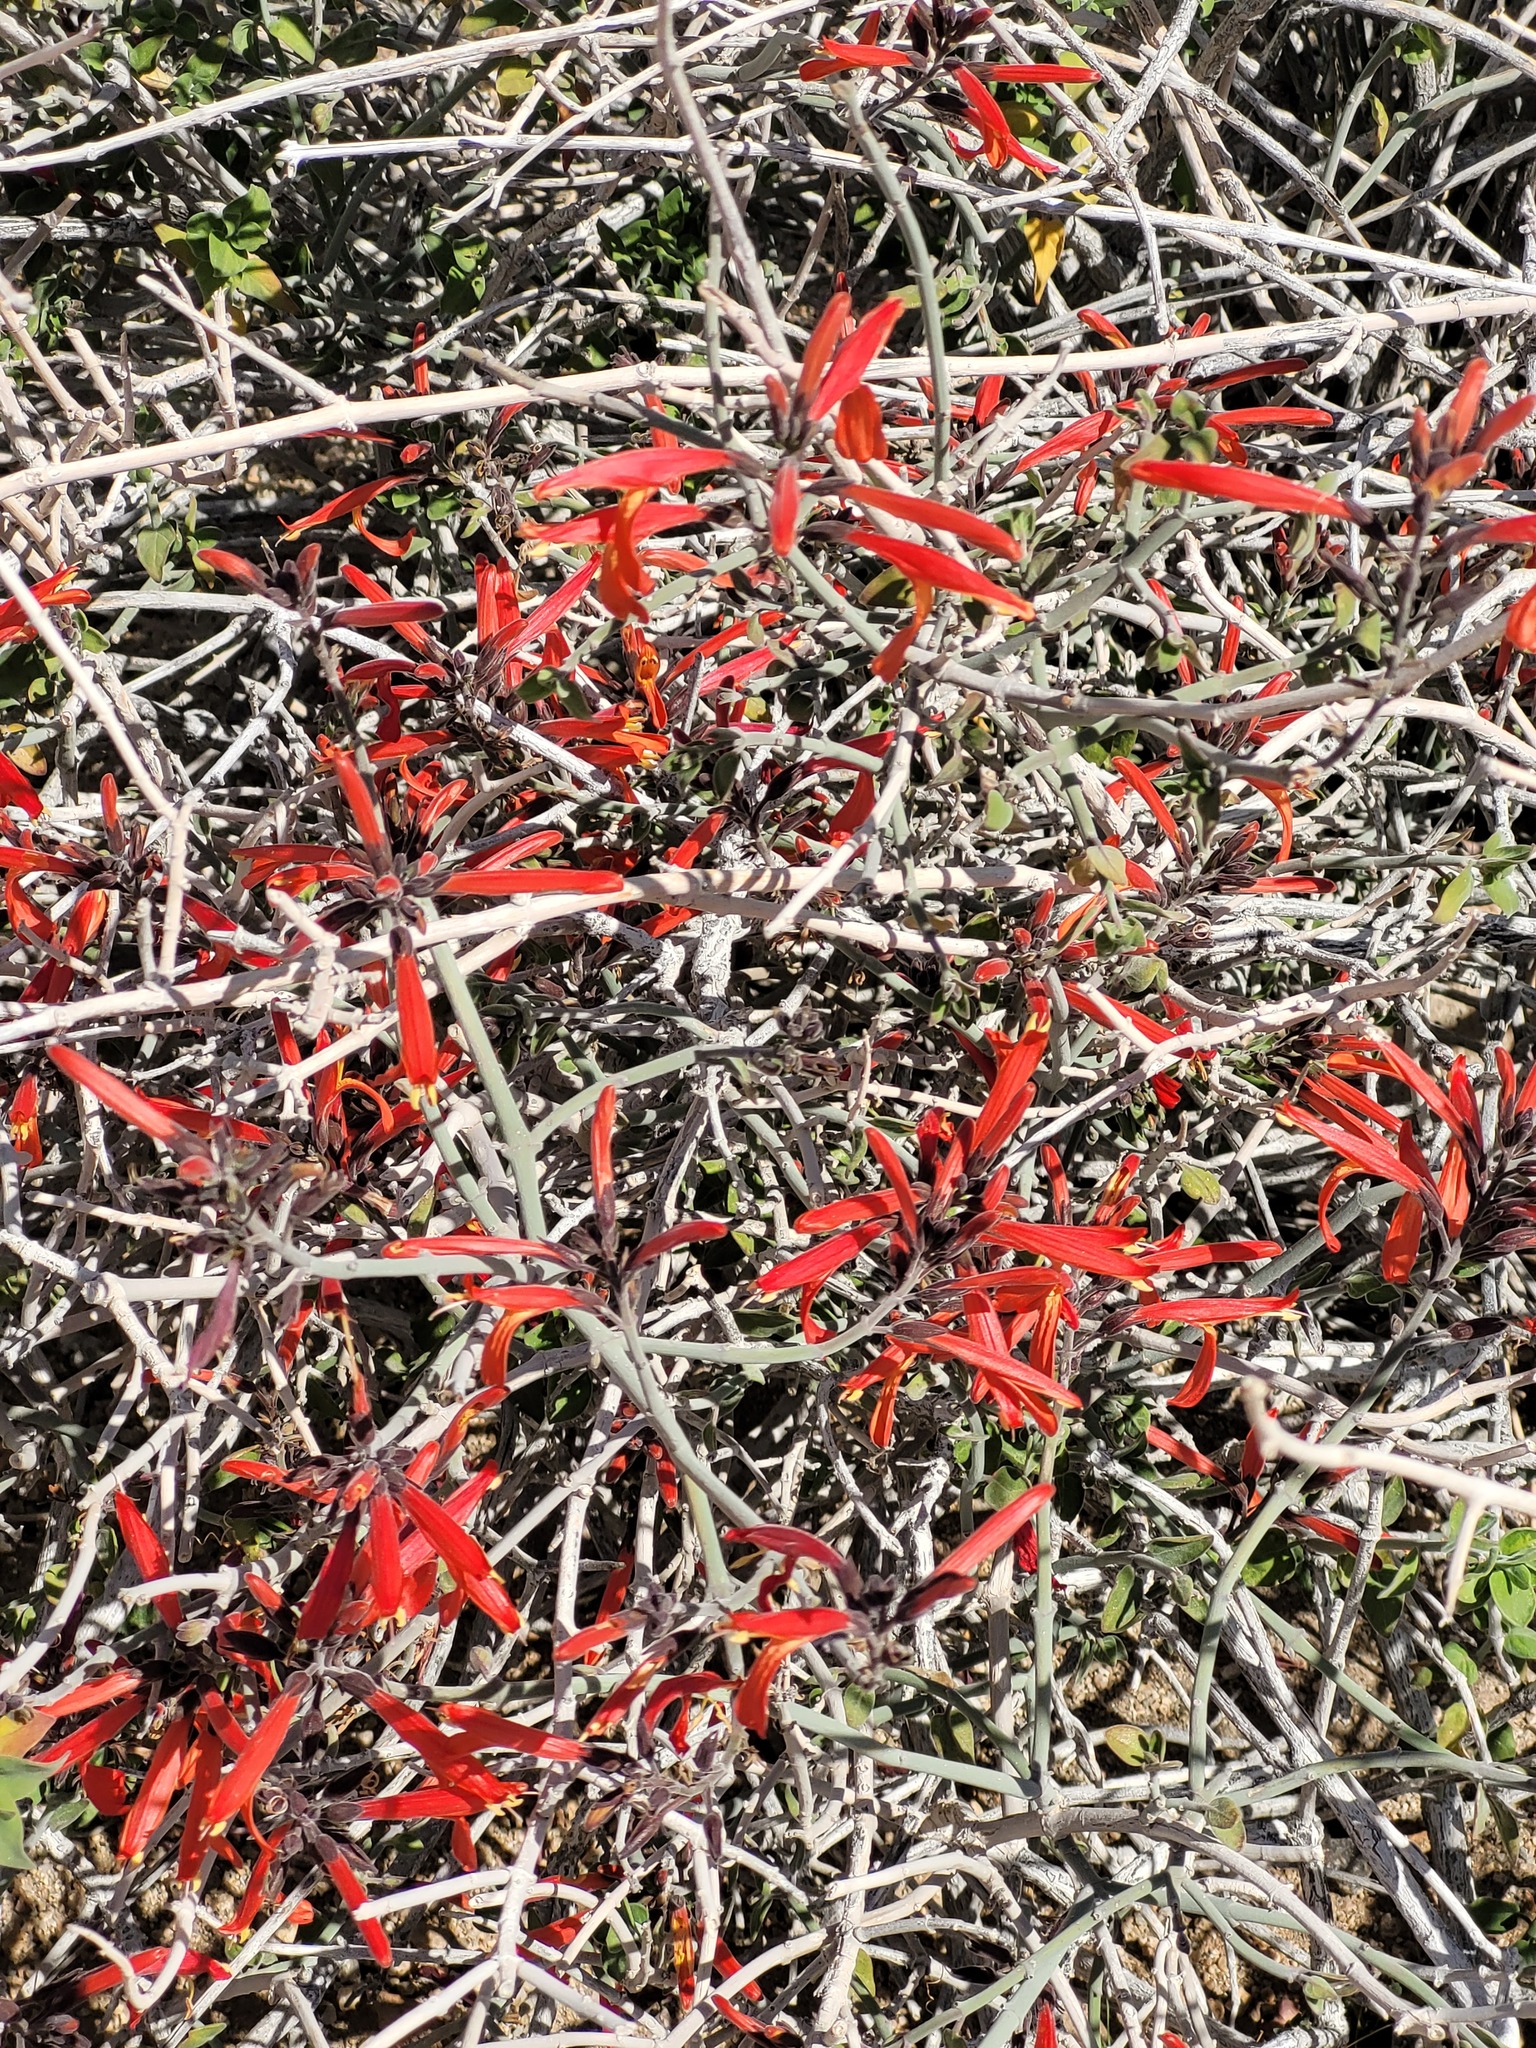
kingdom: Plantae
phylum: Tracheophyta
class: Magnoliopsida
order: Lamiales
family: Acanthaceae
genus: Justicia
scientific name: Justicia californica
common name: Chuparosa-honeysuckle
